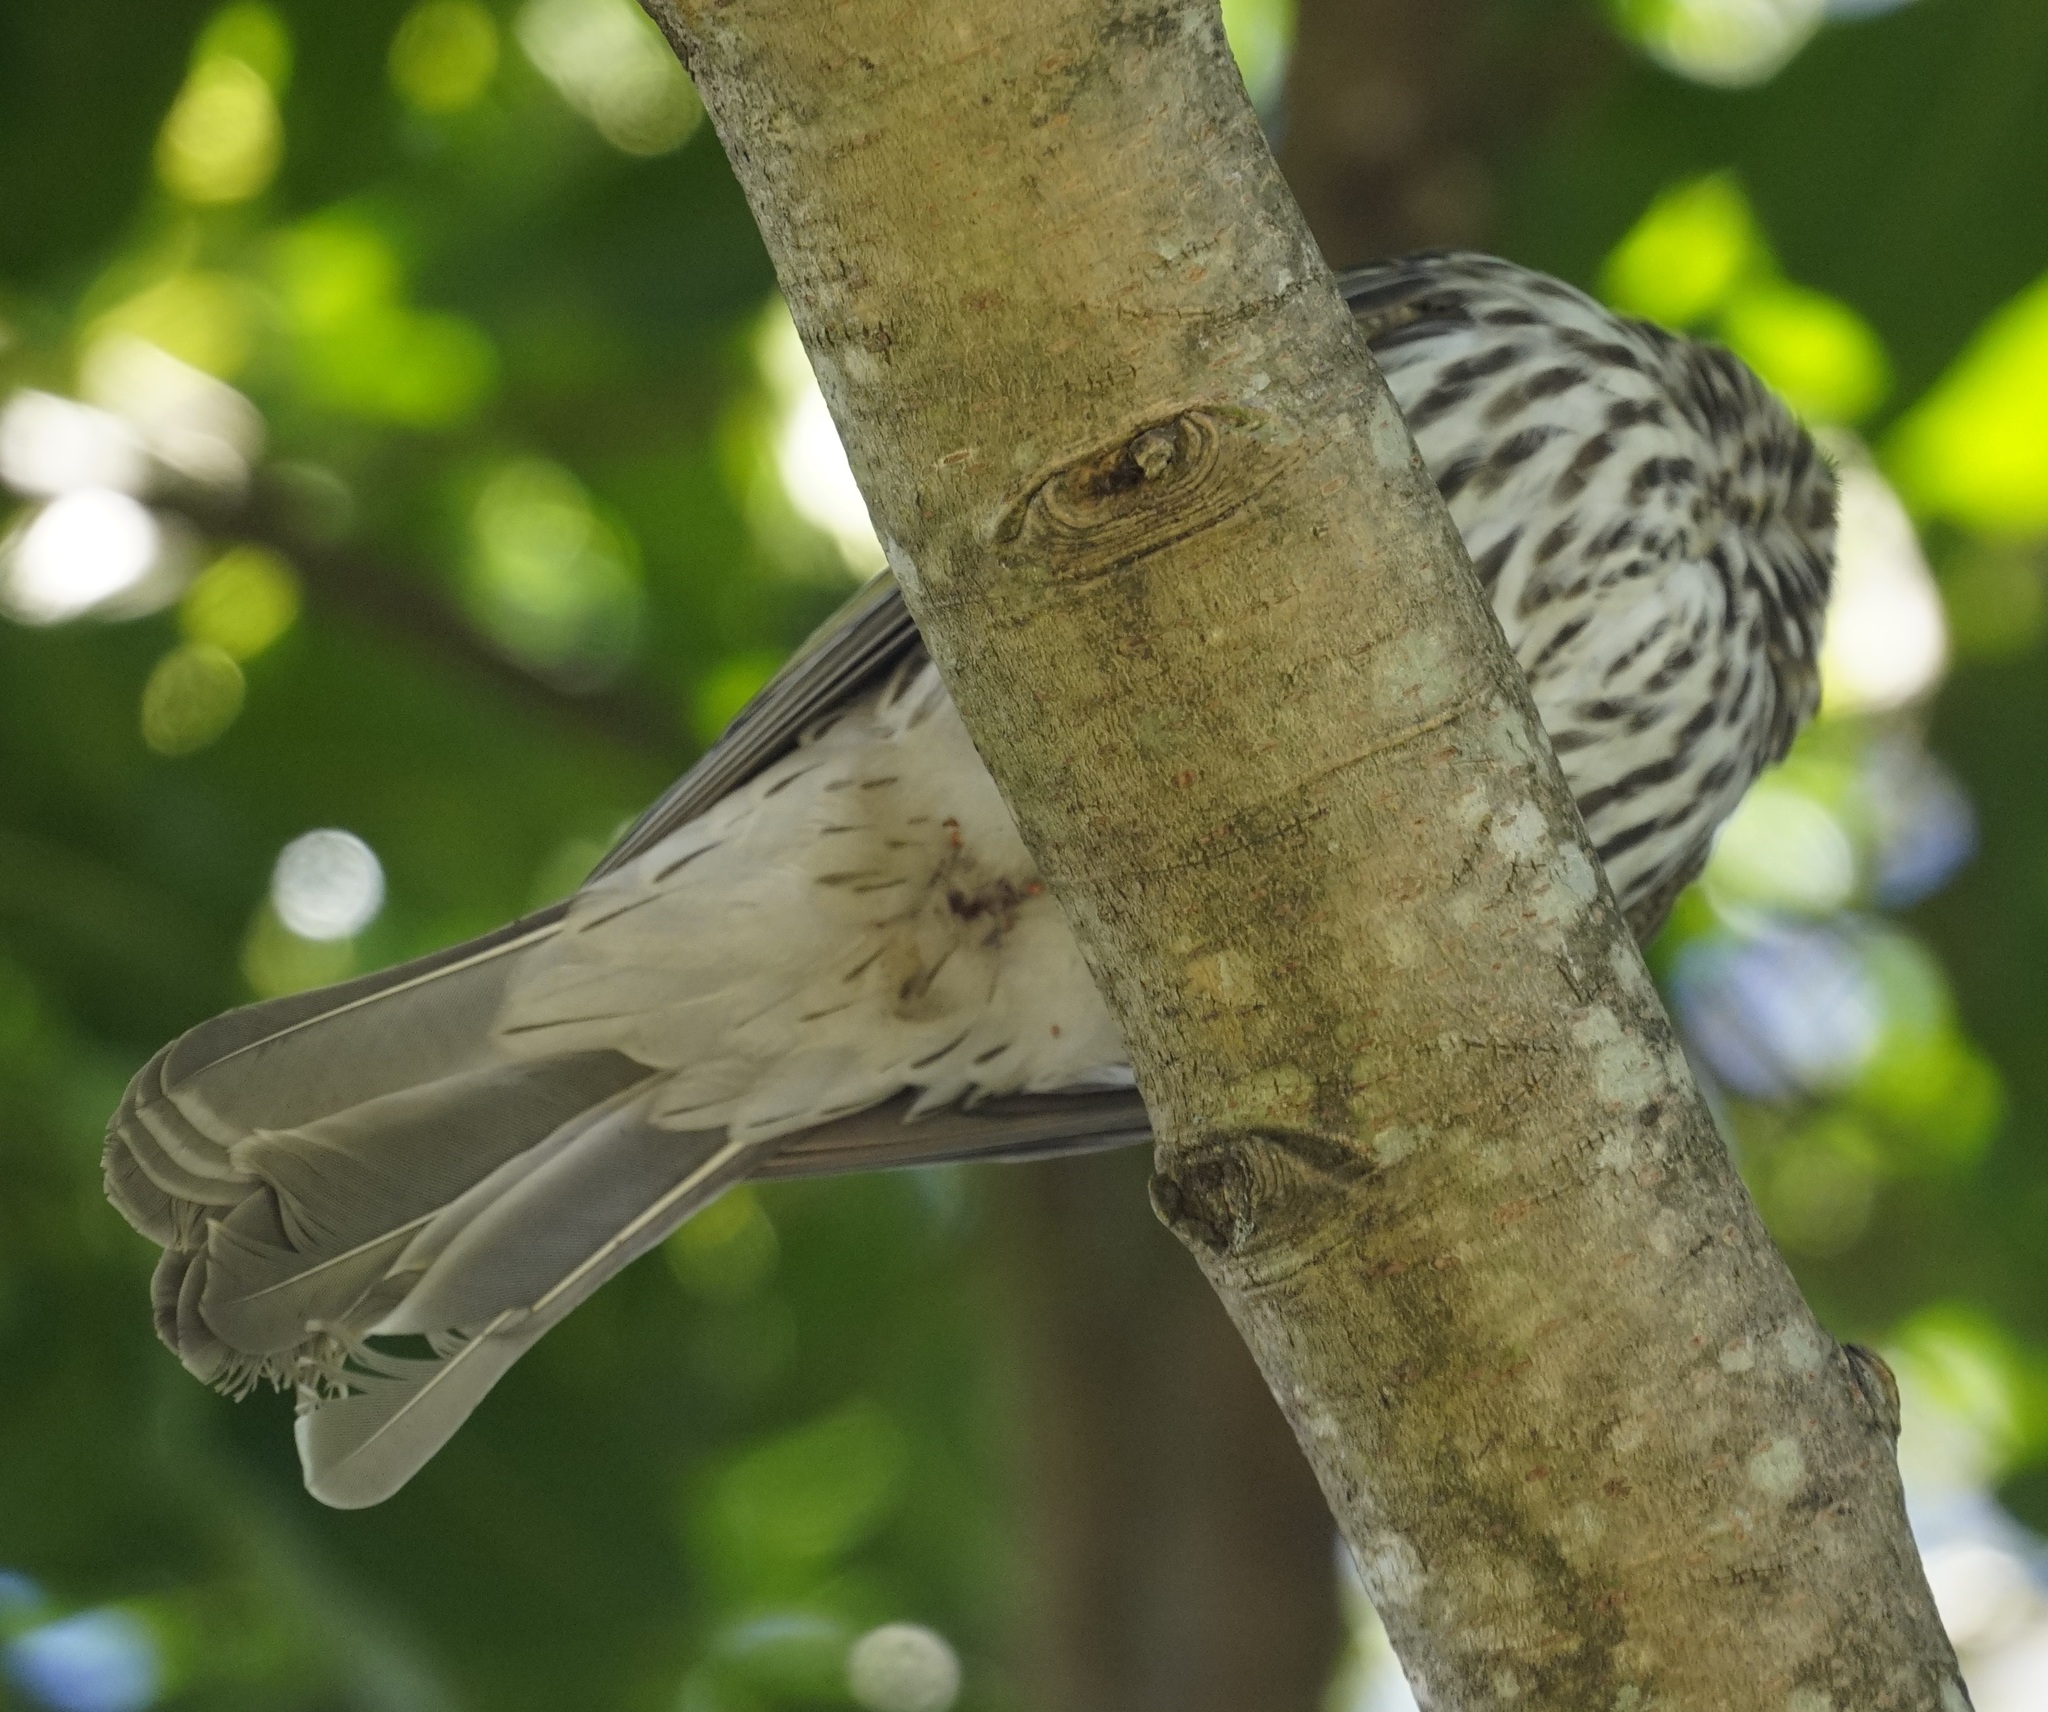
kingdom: Animalia
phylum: Chordata
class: Aves
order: Passeriformes
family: Oriolidae
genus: Sphecotheres
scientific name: Sphecotheres vieilloti
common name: Australasian figbird
